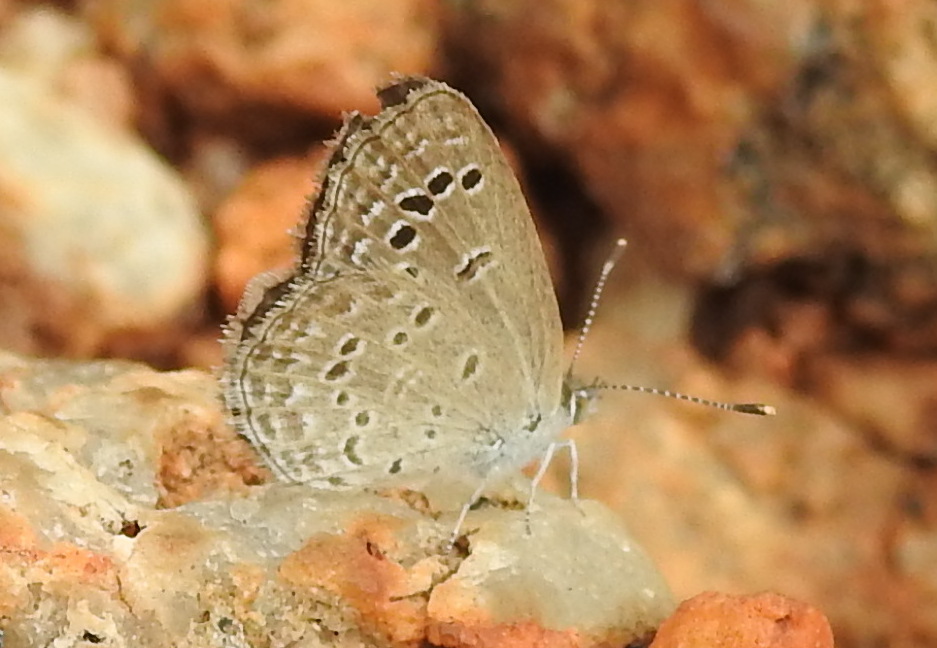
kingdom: Animalia
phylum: Arthropoda
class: Insecta
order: Lepidoptera
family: Lycaenidae
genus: Zizina
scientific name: Zizina otis
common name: Lesser grass blue
